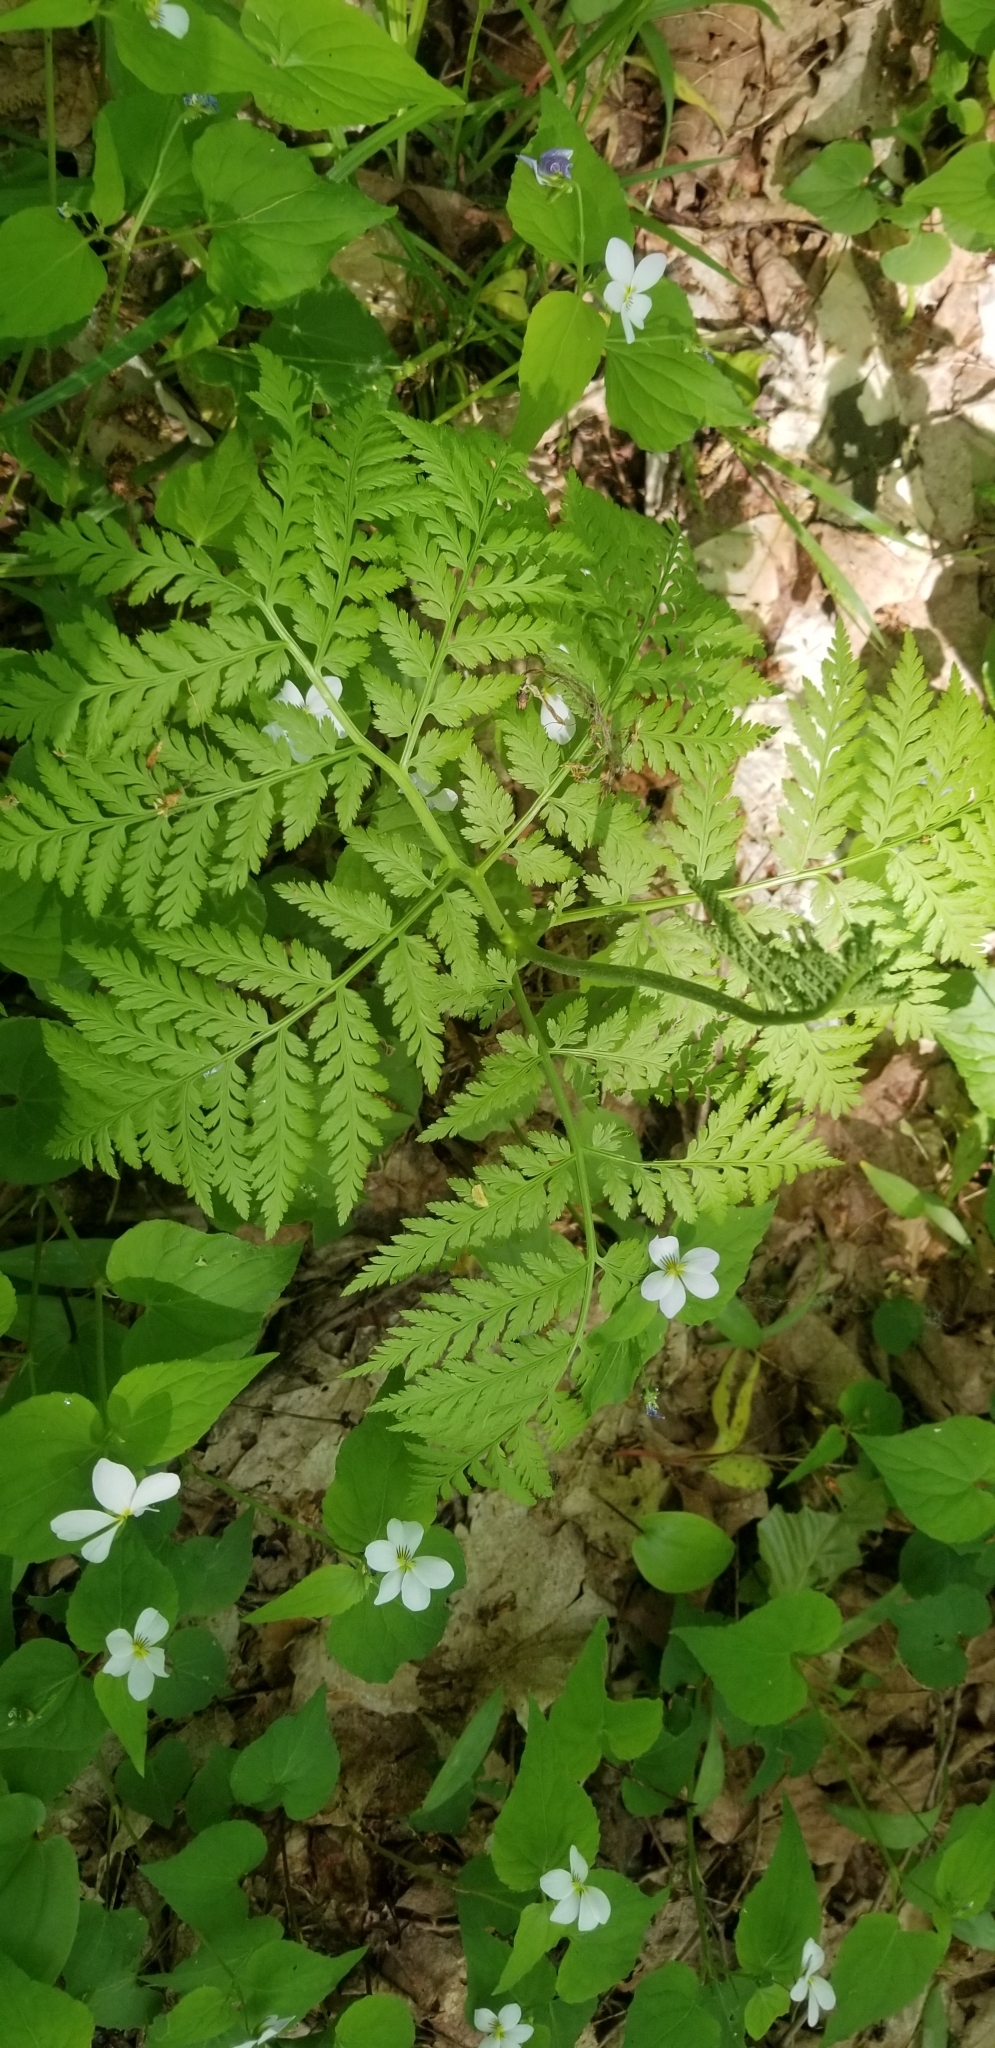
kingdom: Plantae
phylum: Tracheophyta
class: Polypodiopsida
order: Ophioglossales
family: Ophioglossaceae
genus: Botrypus
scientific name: Botrypus virginianus
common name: Common grapefern
